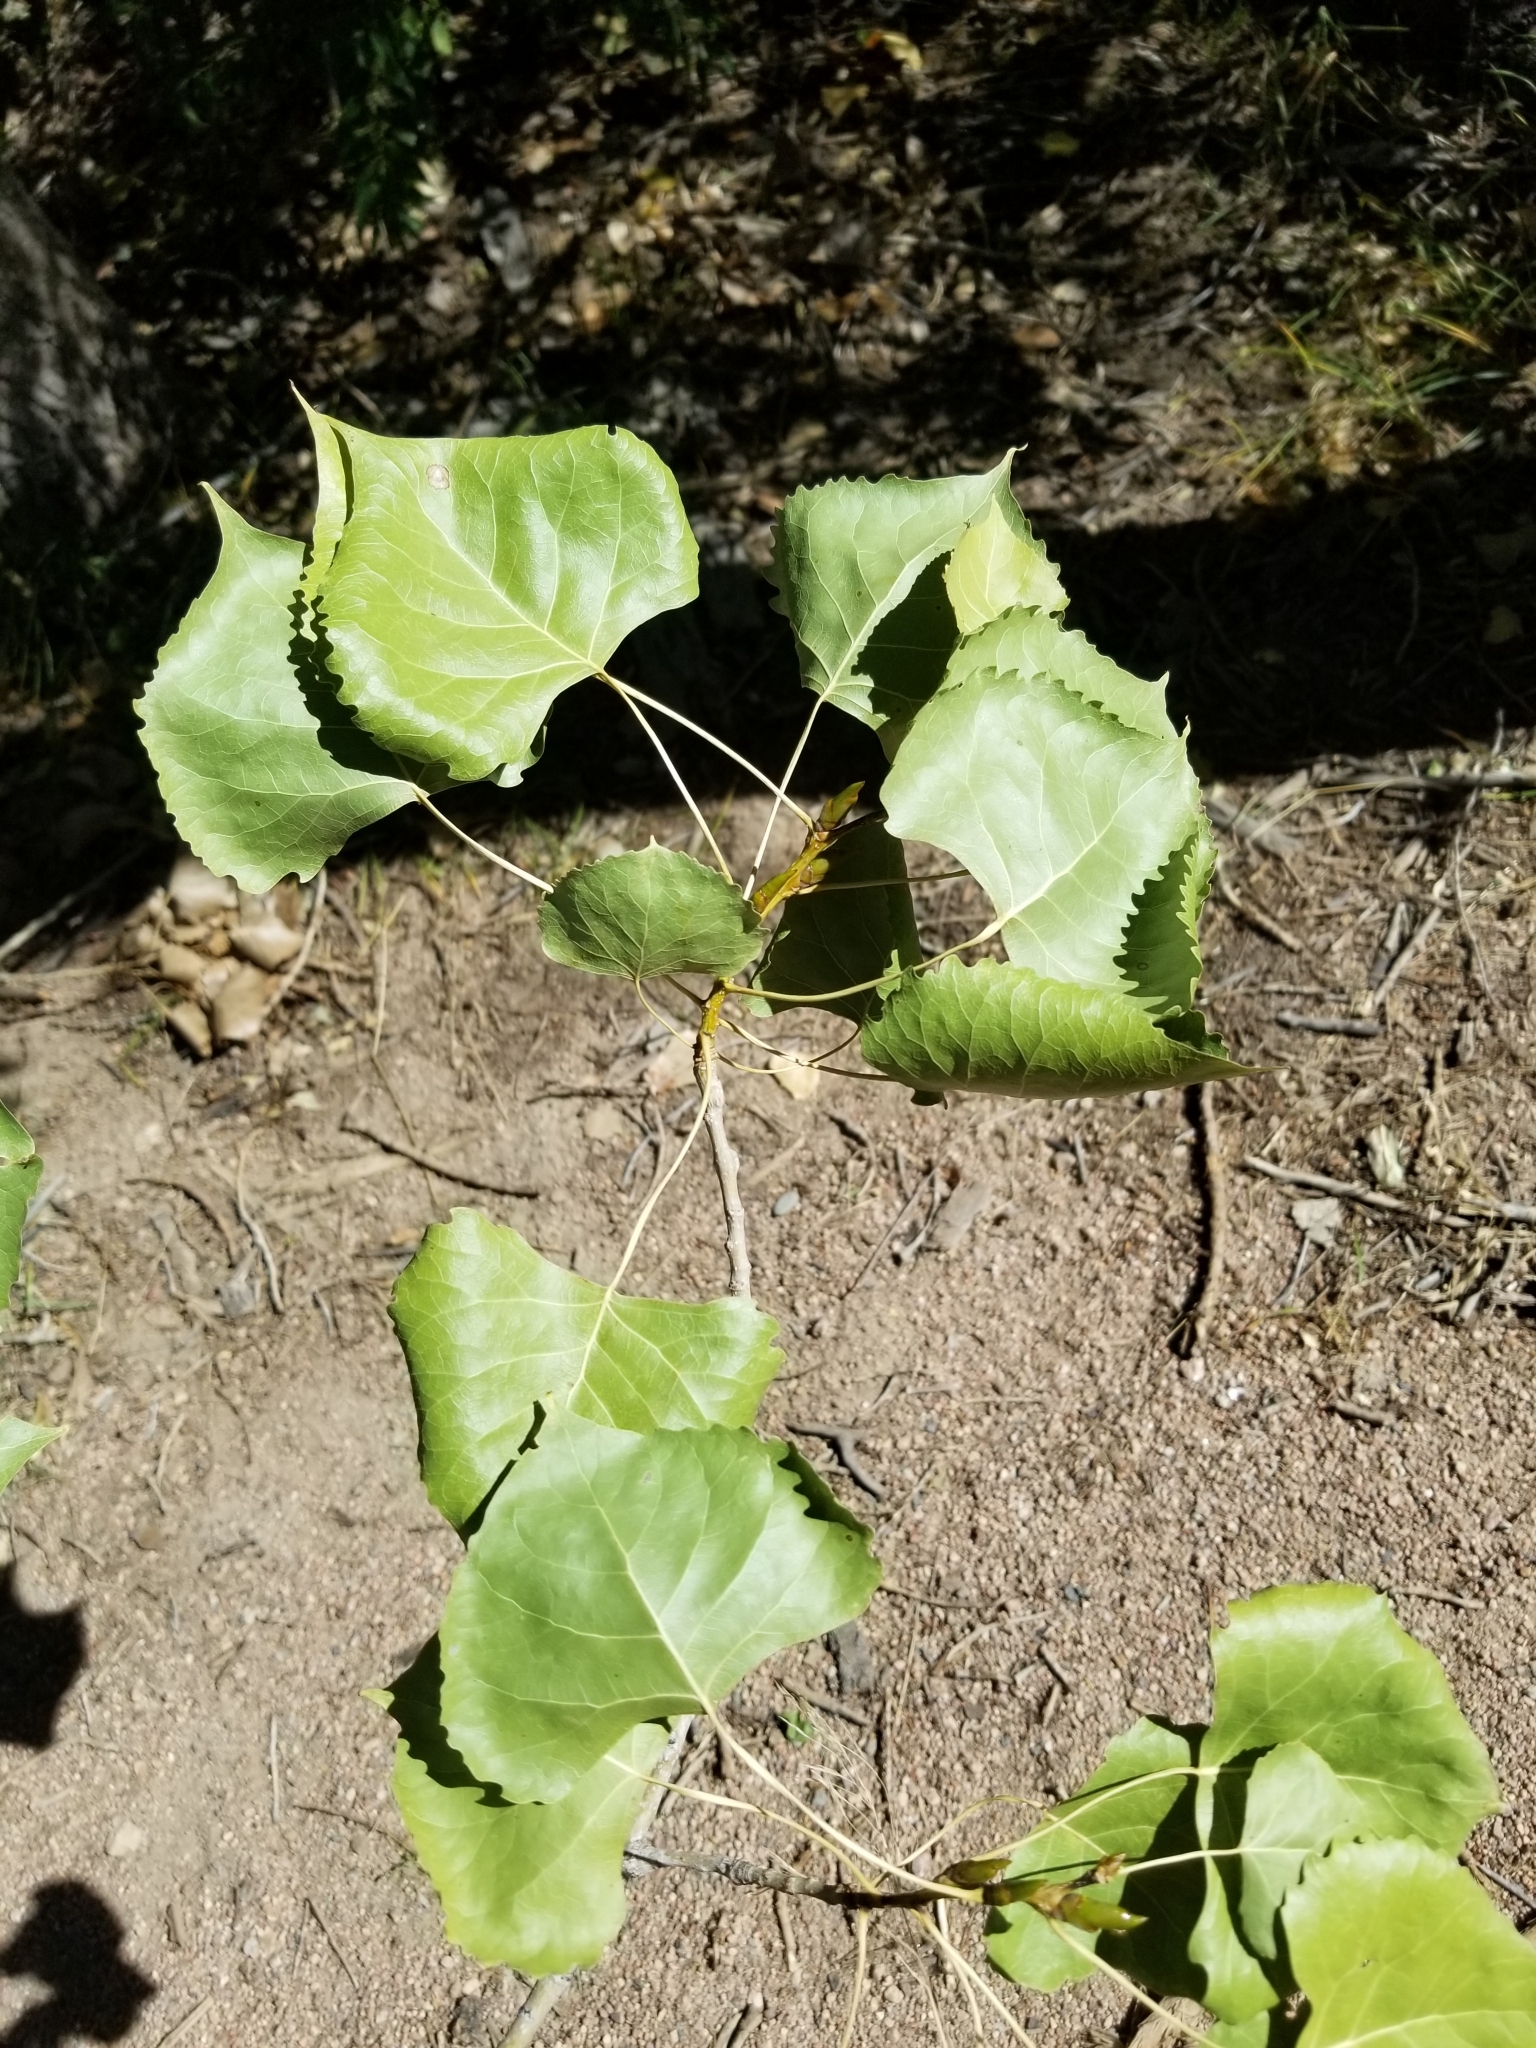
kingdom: Plantae
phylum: Tracheophyta
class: Magnoliopsida
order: Malpighiales
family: Salicaceae
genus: Populus
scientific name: Populus deltoides
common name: Eastern cottonwood
